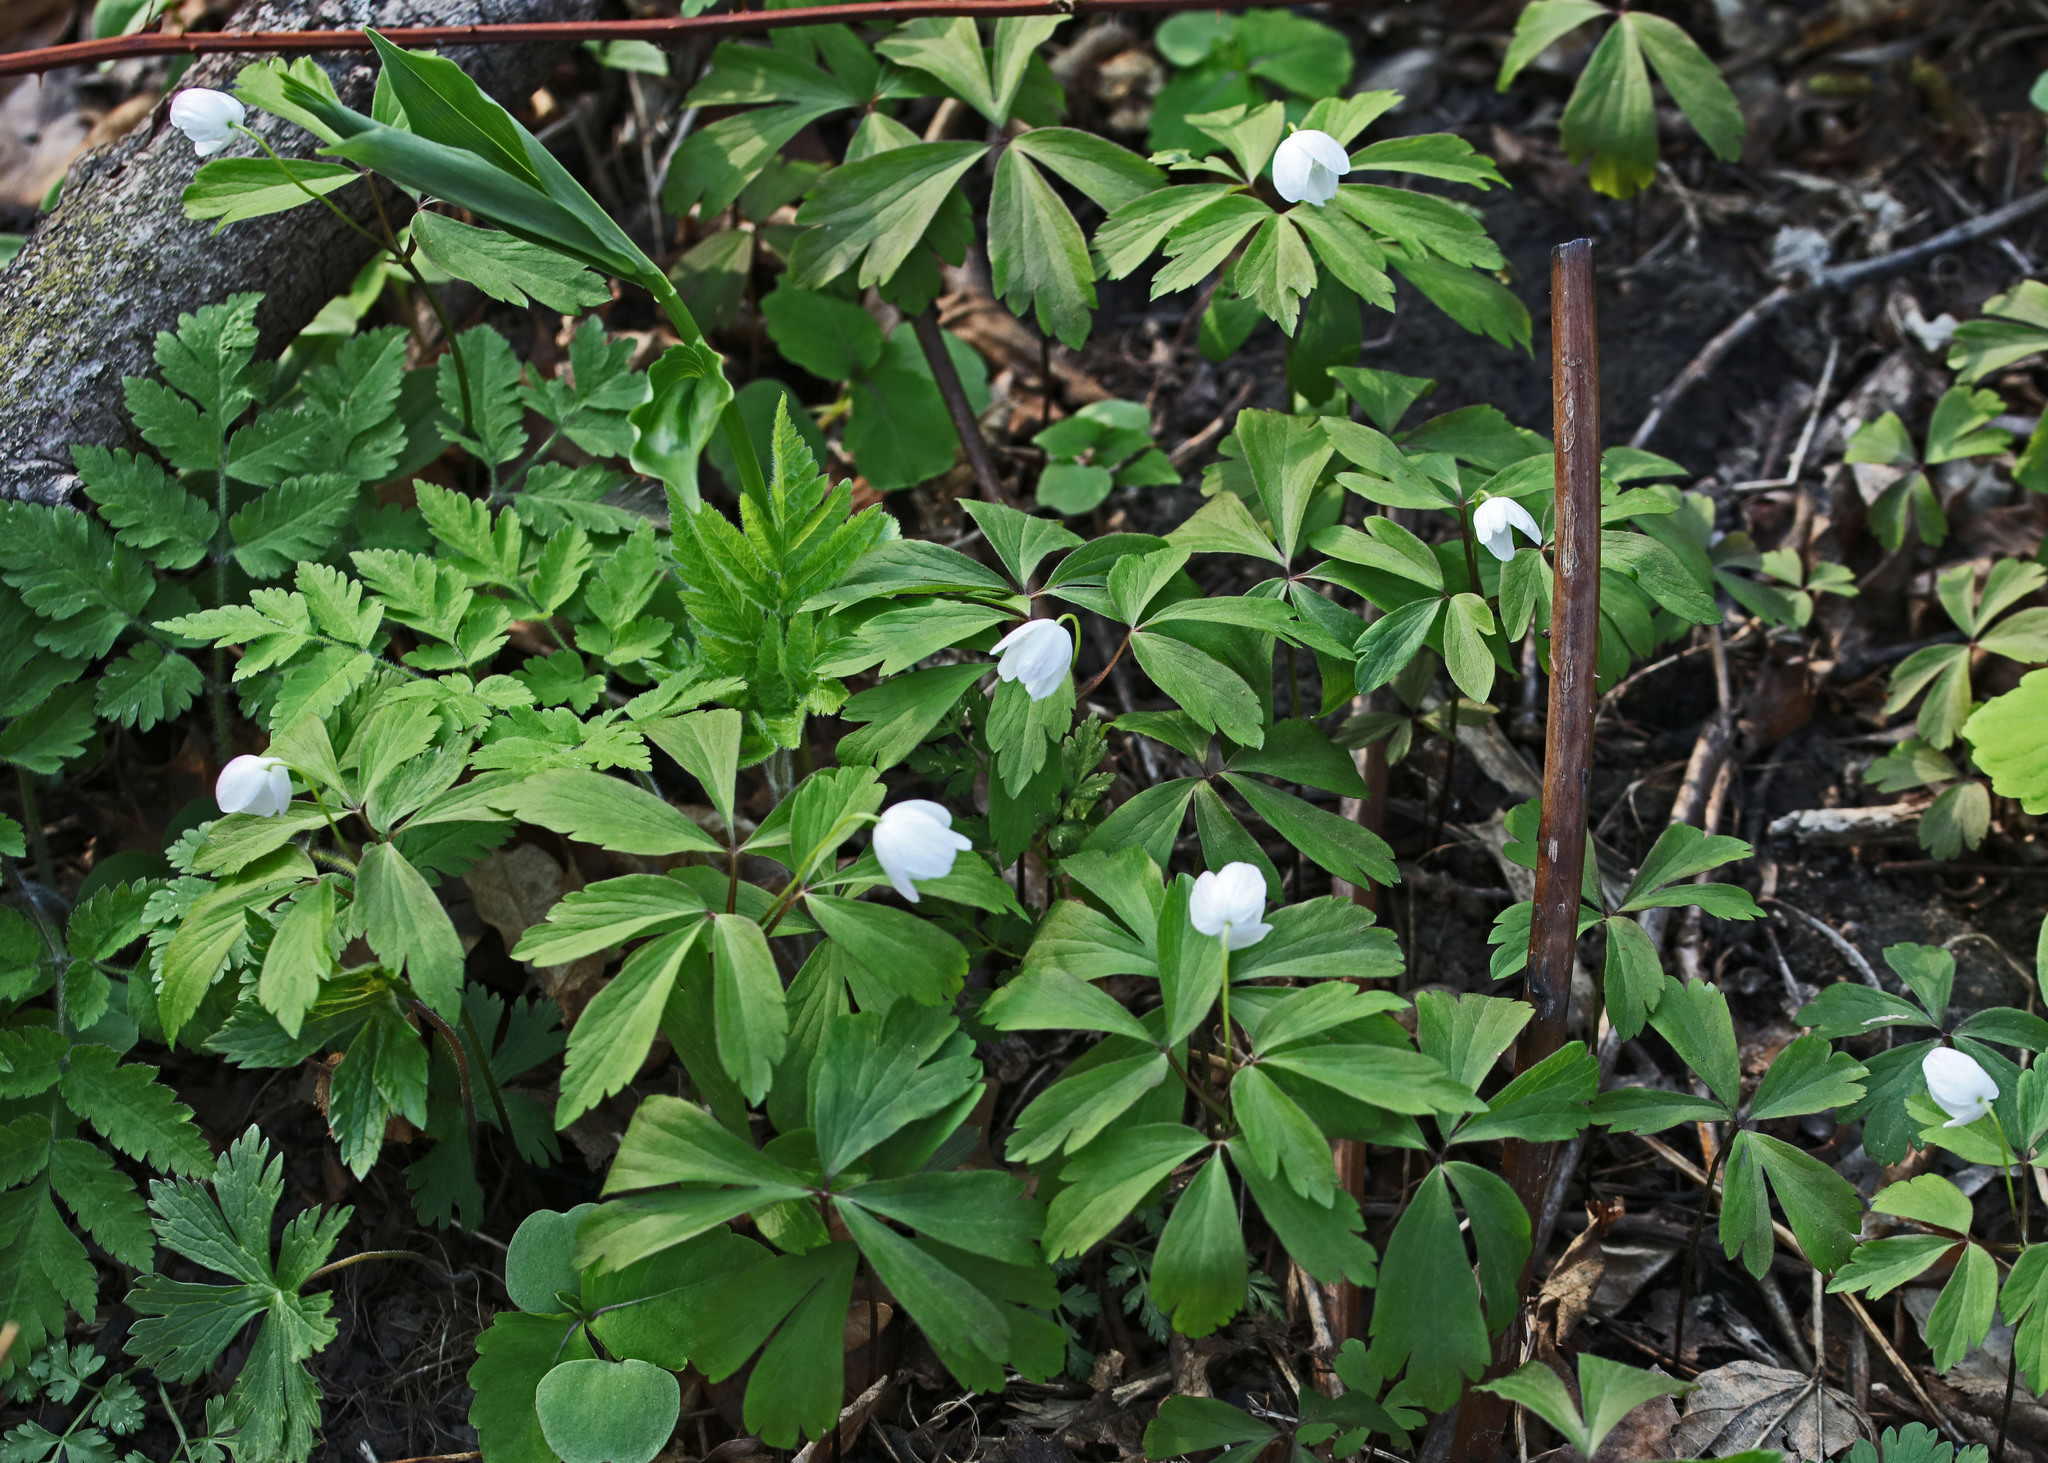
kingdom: Plantae
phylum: Tracheophyta
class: Magnoliopsida
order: Ranunculales
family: Ranunculaceae
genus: Anemone
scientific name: Anemone quinquefolia
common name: Wood anemone
